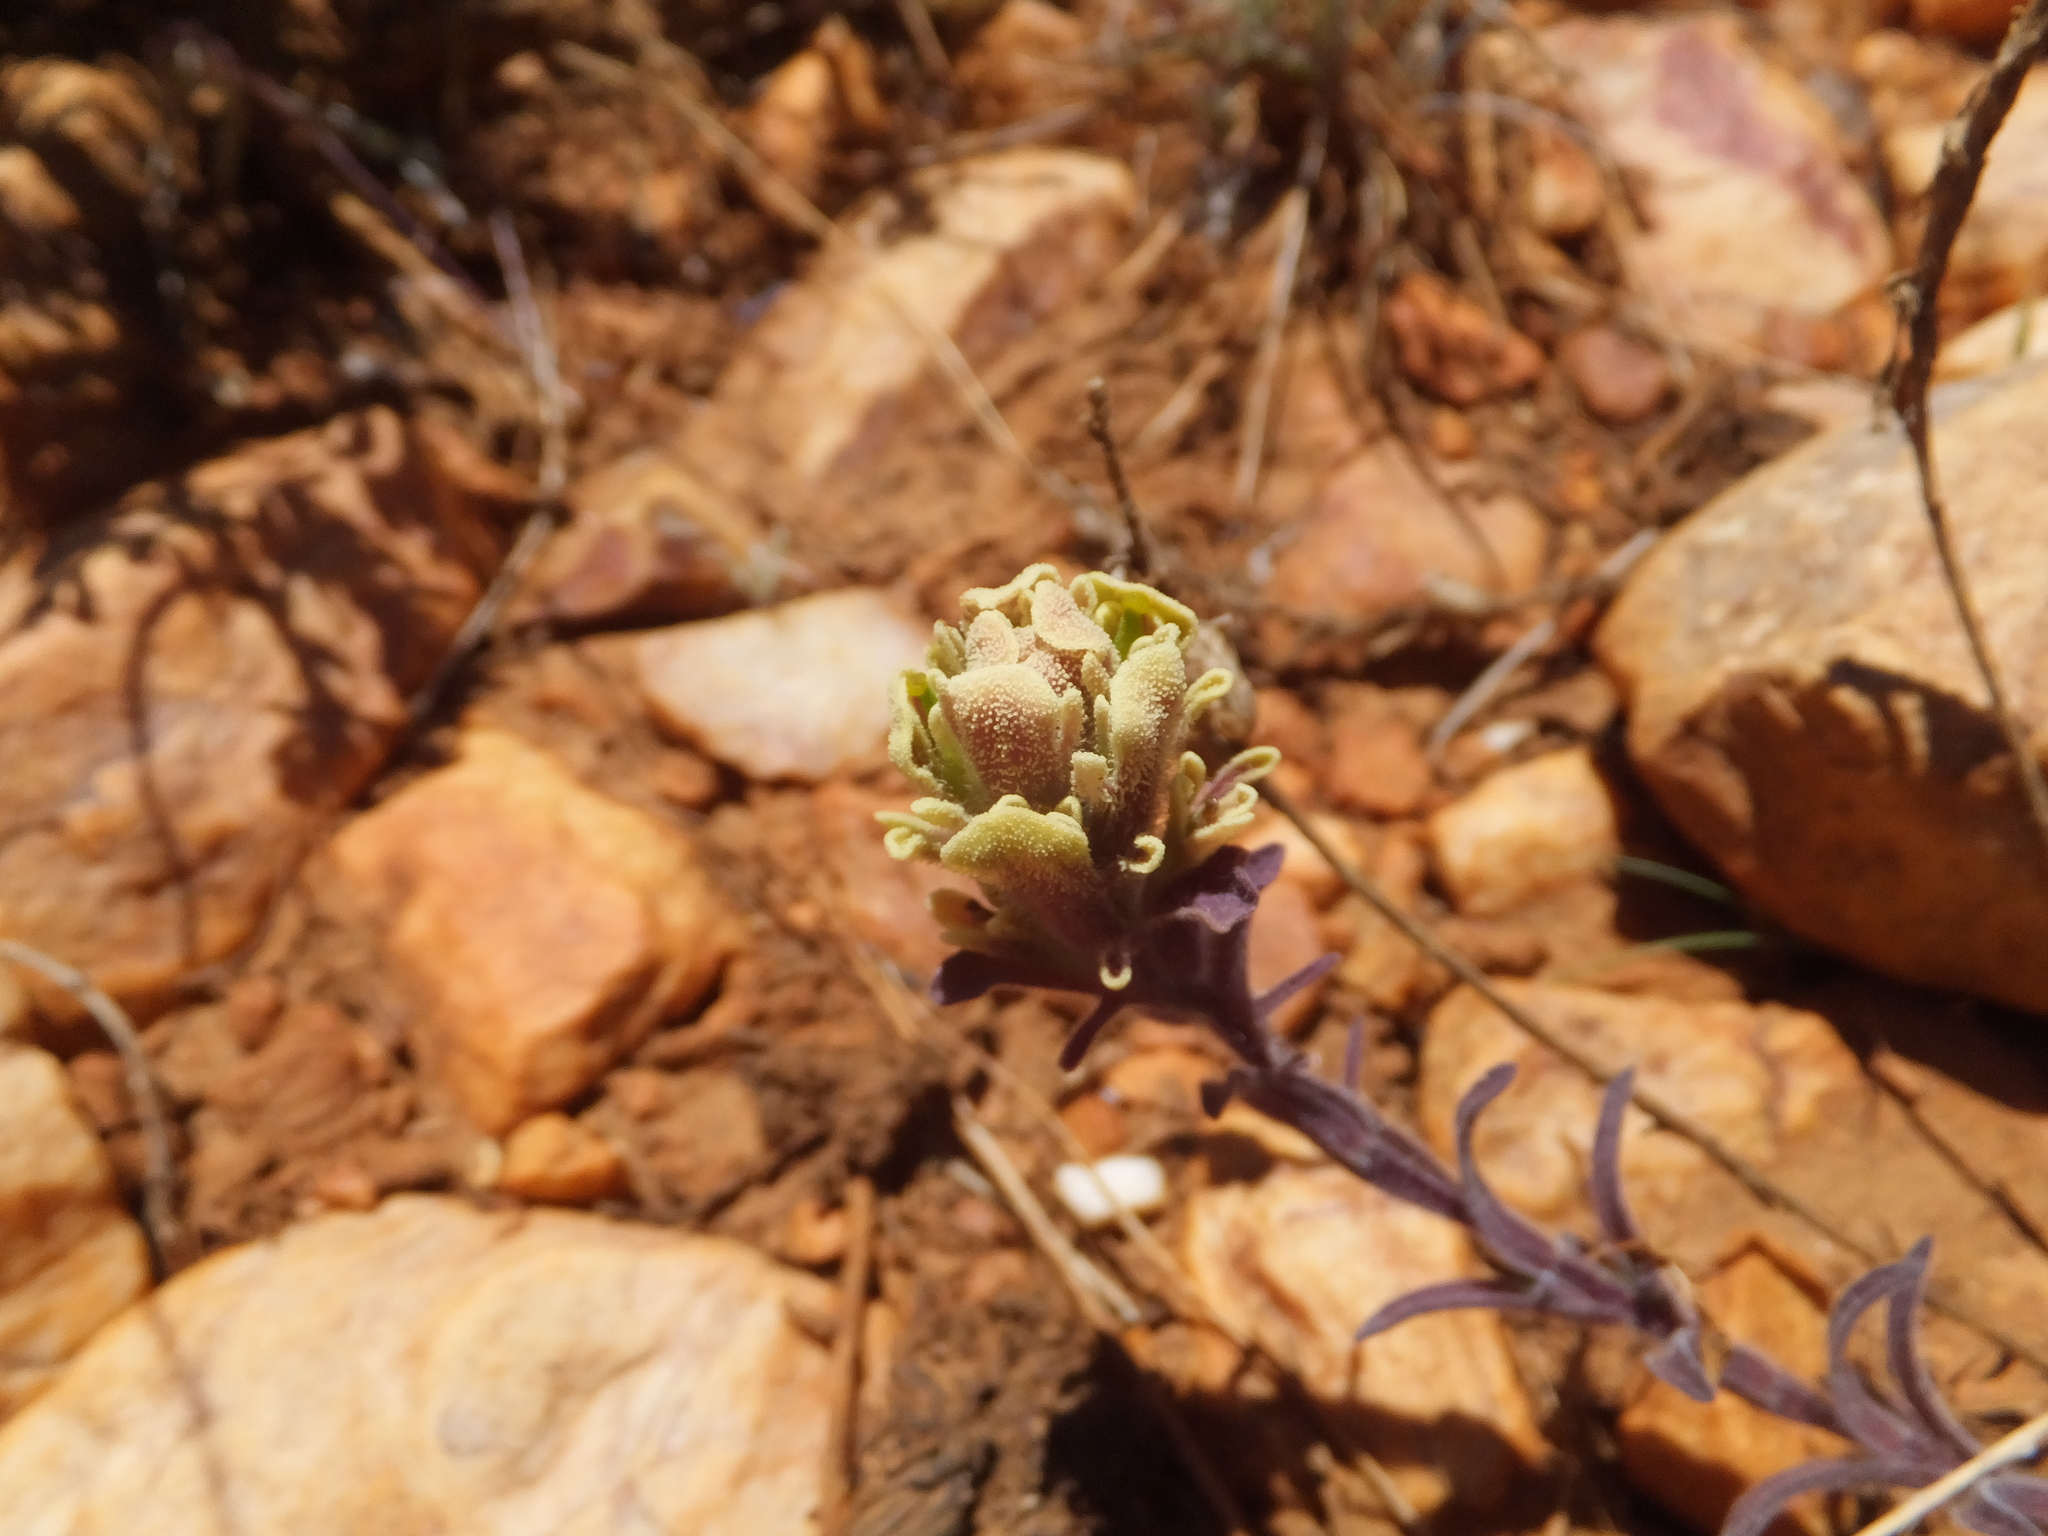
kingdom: Plantae
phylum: Tracheophyta
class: Magnoliopsida
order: Lamiales
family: Orobanchaceae
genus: Castilleja
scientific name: Castilleja cinerea
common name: Ash-gray indian paintbrush
